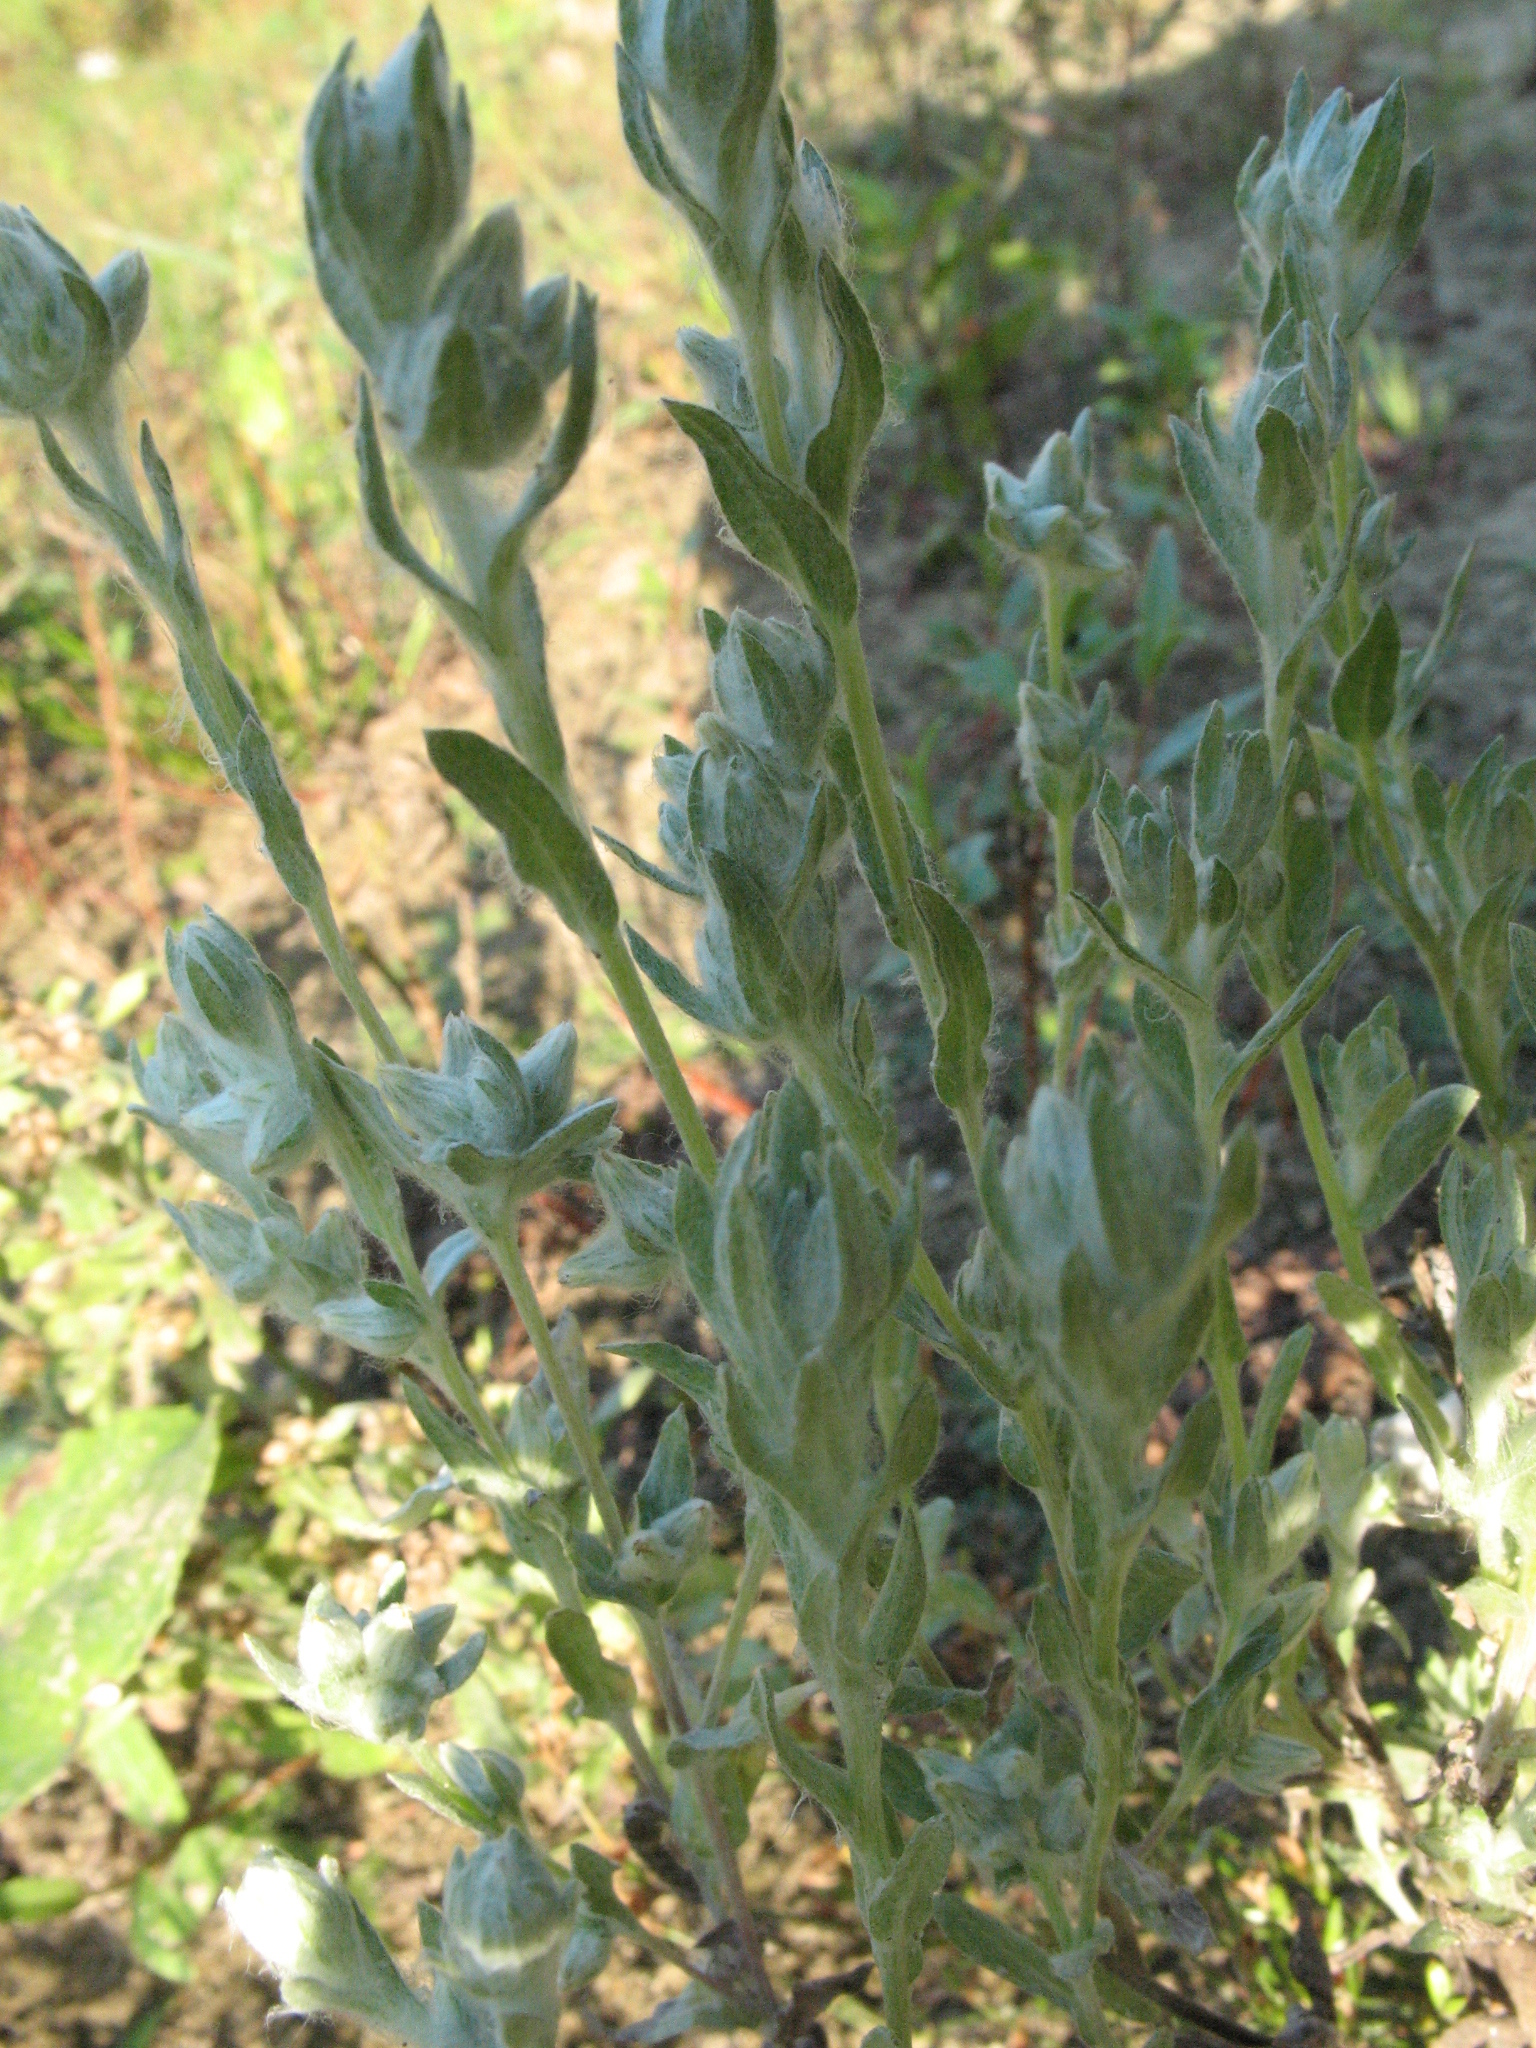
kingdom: Plantae
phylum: Tracheophyta
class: Magnoliopsida
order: Asterales
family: Asteraceae
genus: Filago
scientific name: Filago arvensis
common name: Field cudweed
